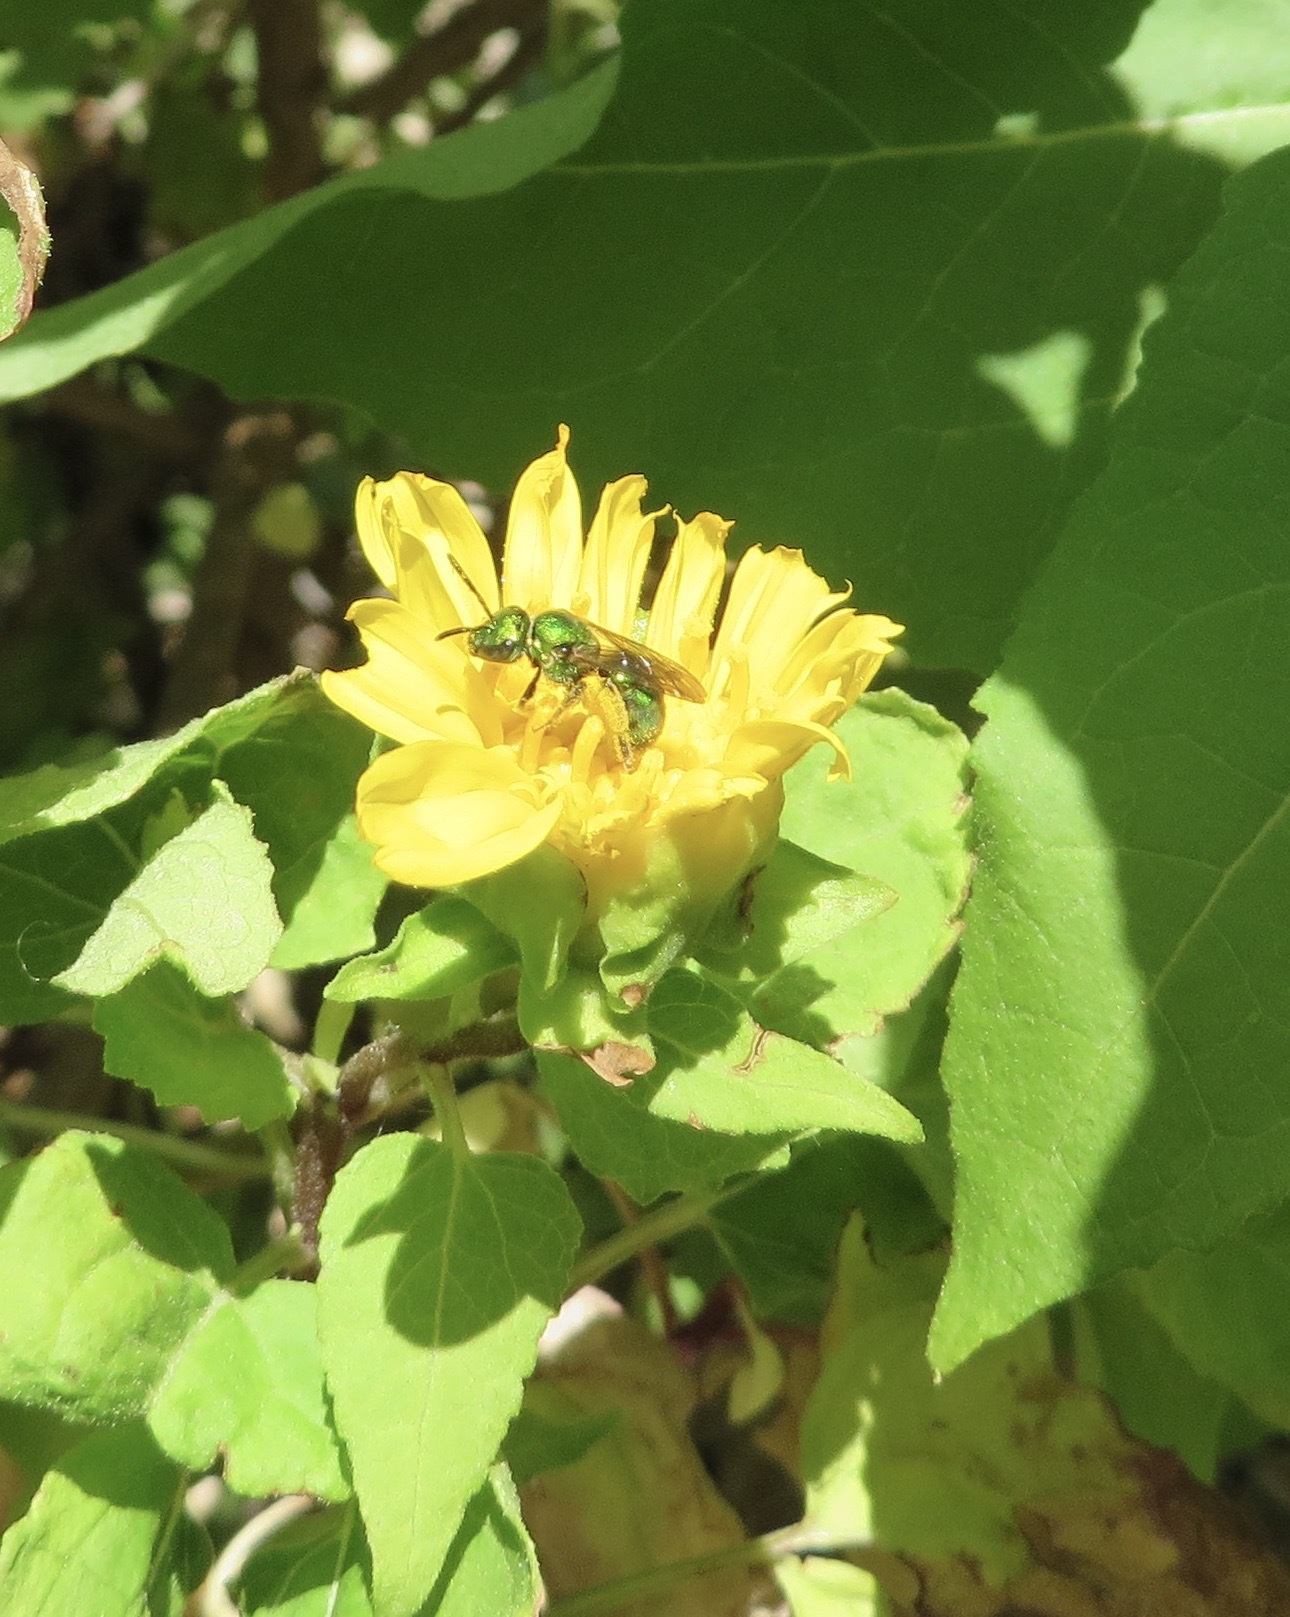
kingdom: Animalia
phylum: Arthropoda
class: Insecta
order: Hymenoptera
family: Halictidae
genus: Augochlorella
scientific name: Augochlorella pomoniella
